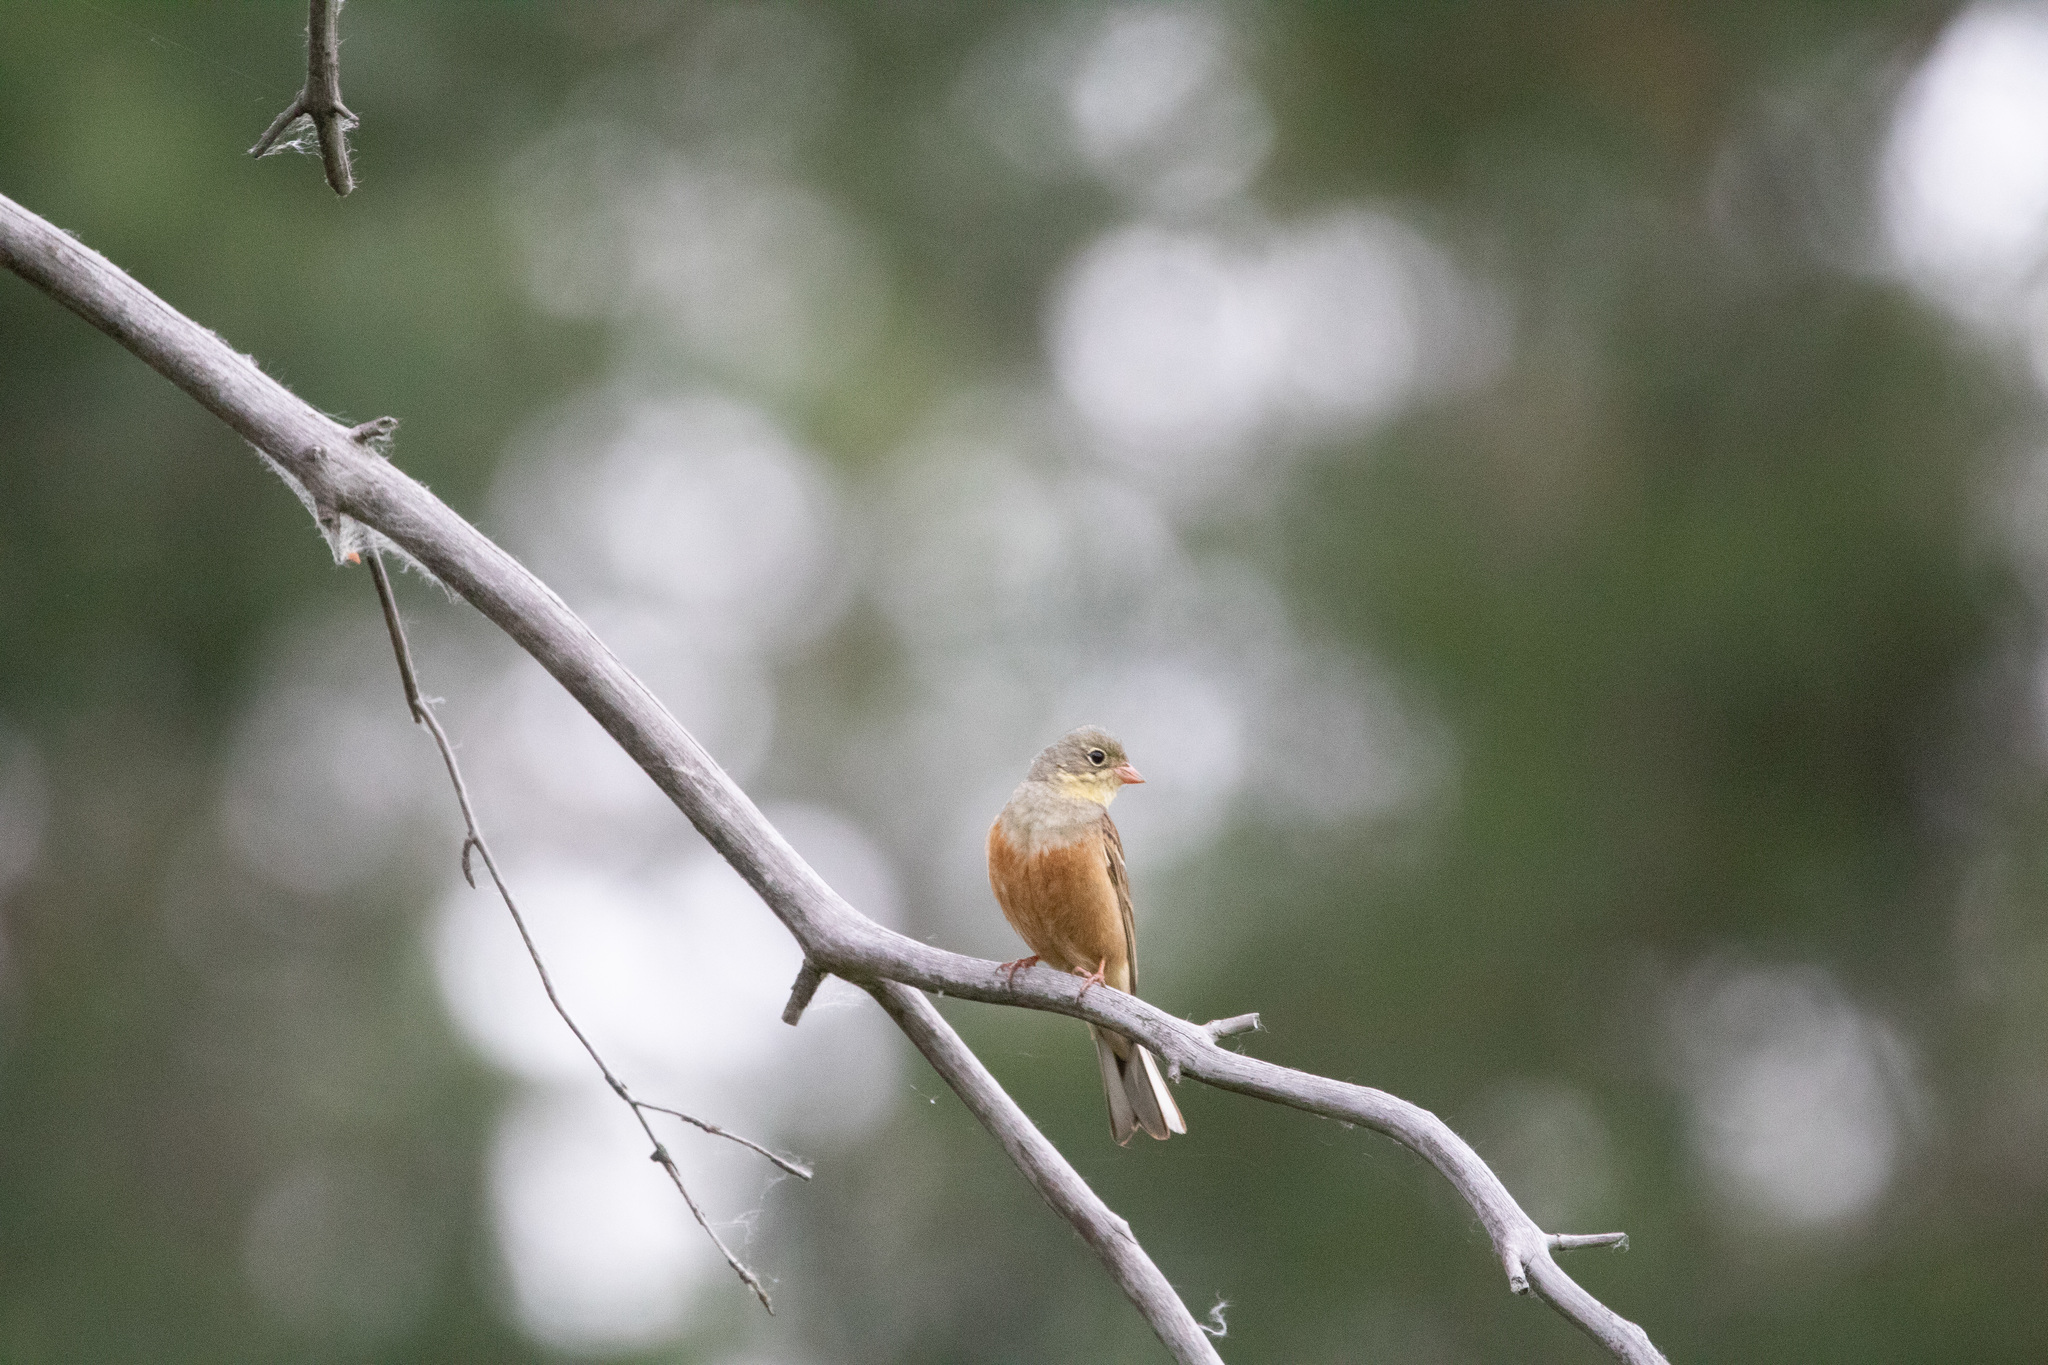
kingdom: Animalia
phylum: Chordata
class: Aves
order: Passeriformes
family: Emberizidae
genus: Emberiza
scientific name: Emberiza hortulana
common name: Ortolan bunting
